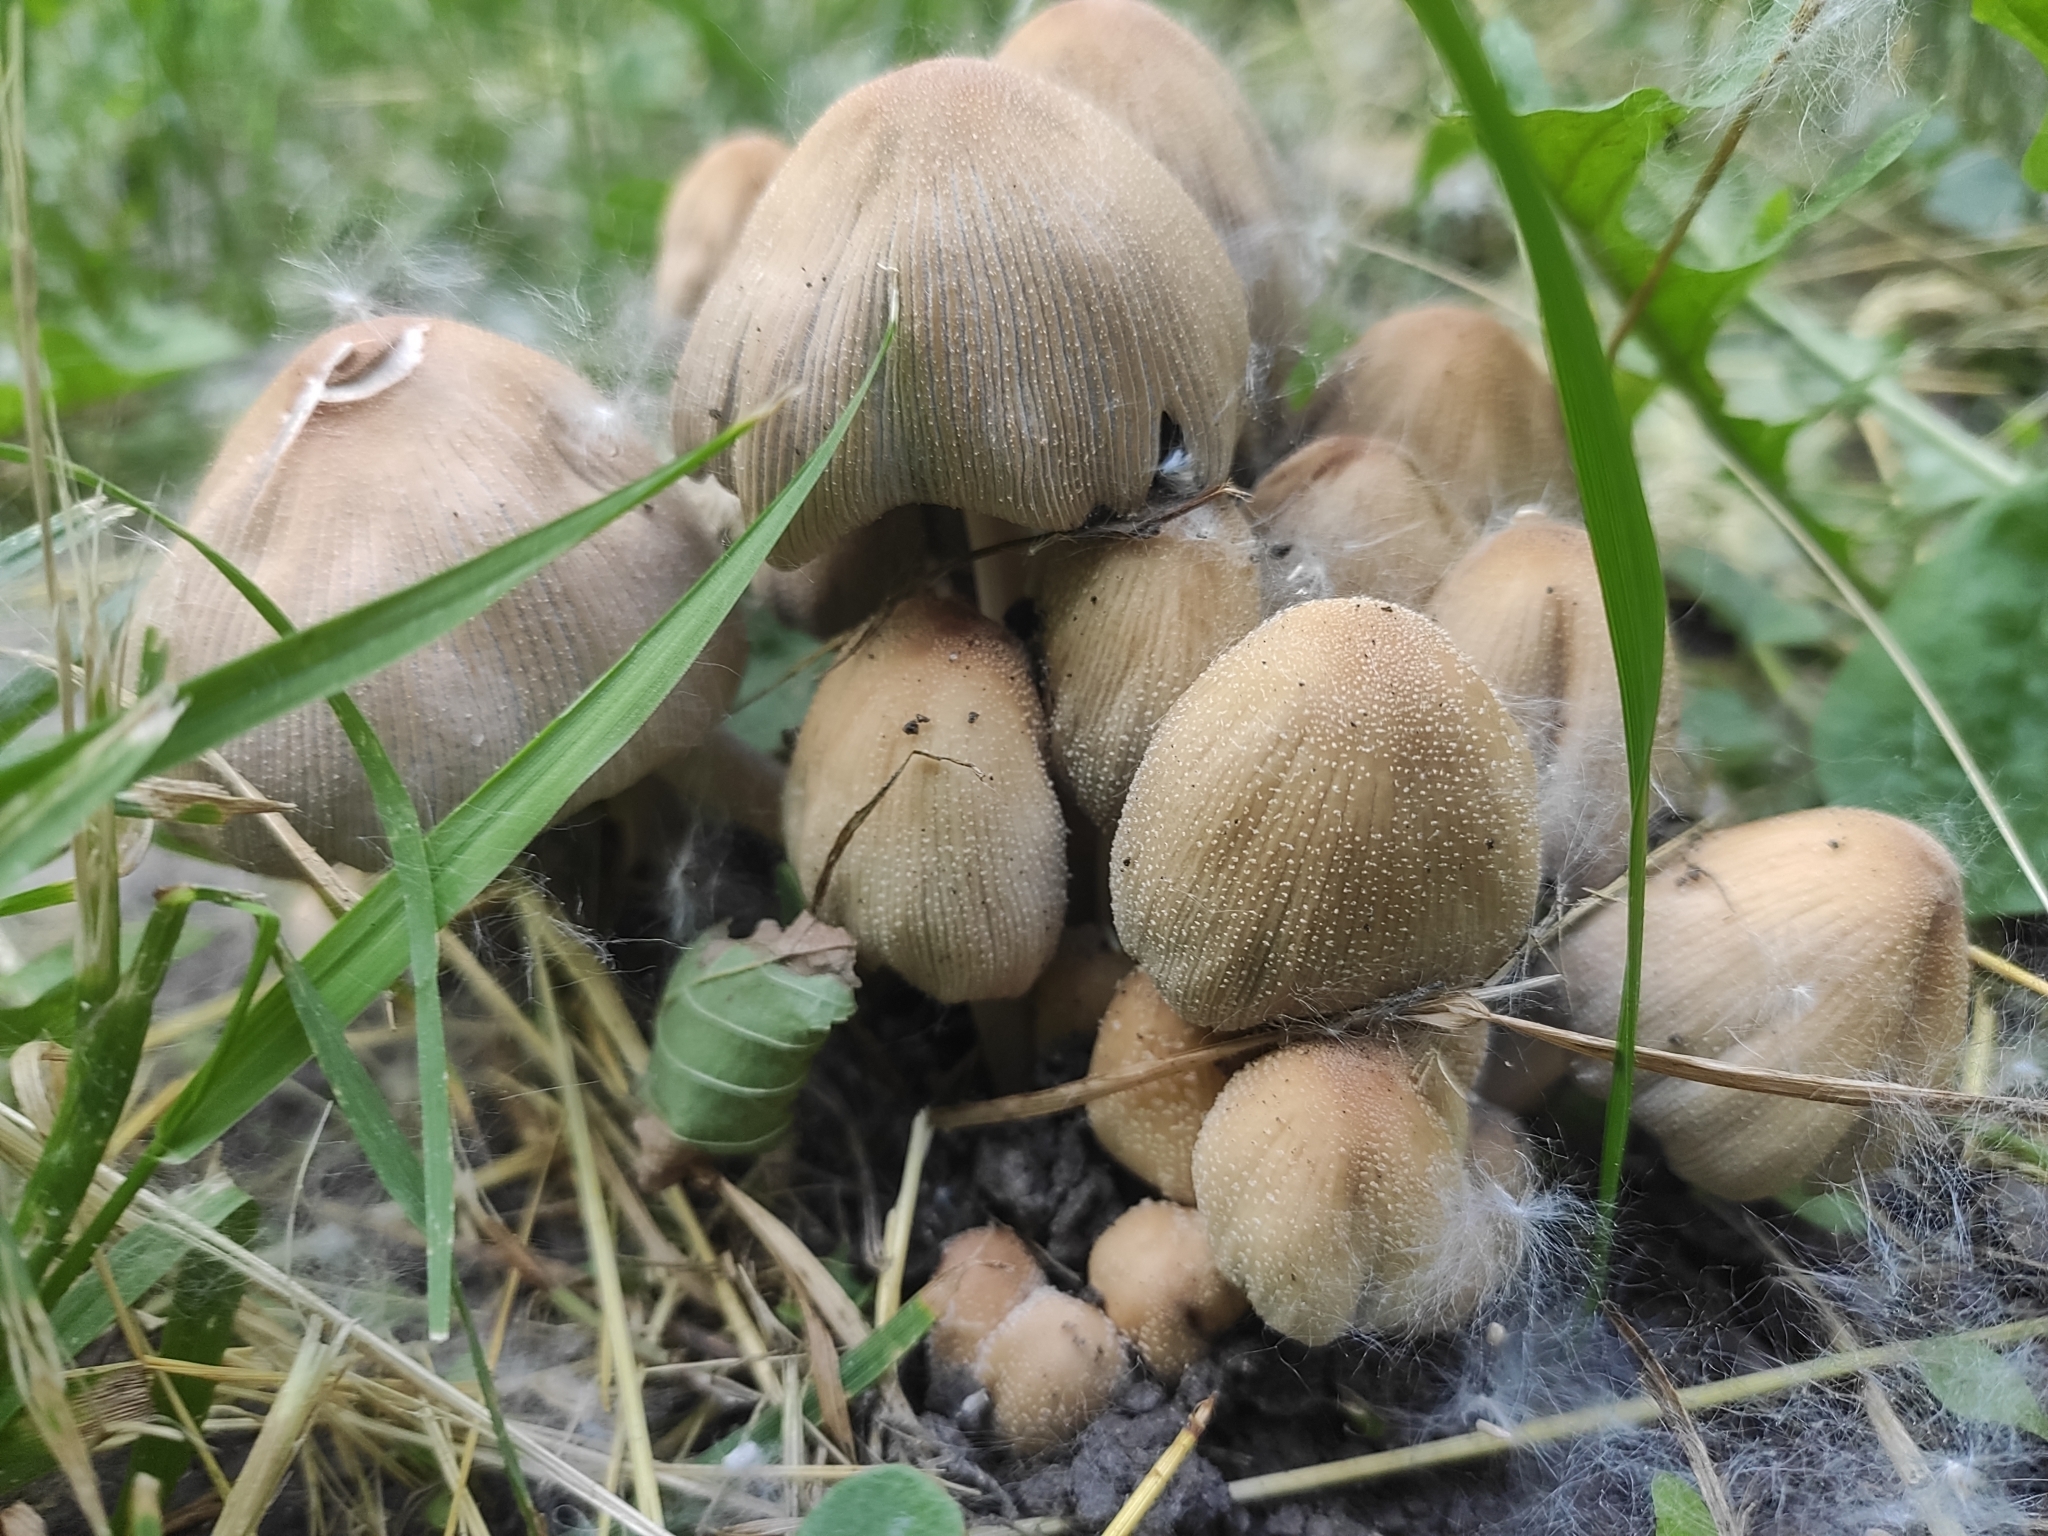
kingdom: Fungi
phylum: Basidiomycota
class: Agaricomycetes
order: Agaricales
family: Psathyrellaceae
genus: Coprinellus
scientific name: Coprinellus micaceus
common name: Glistening ink-cap
